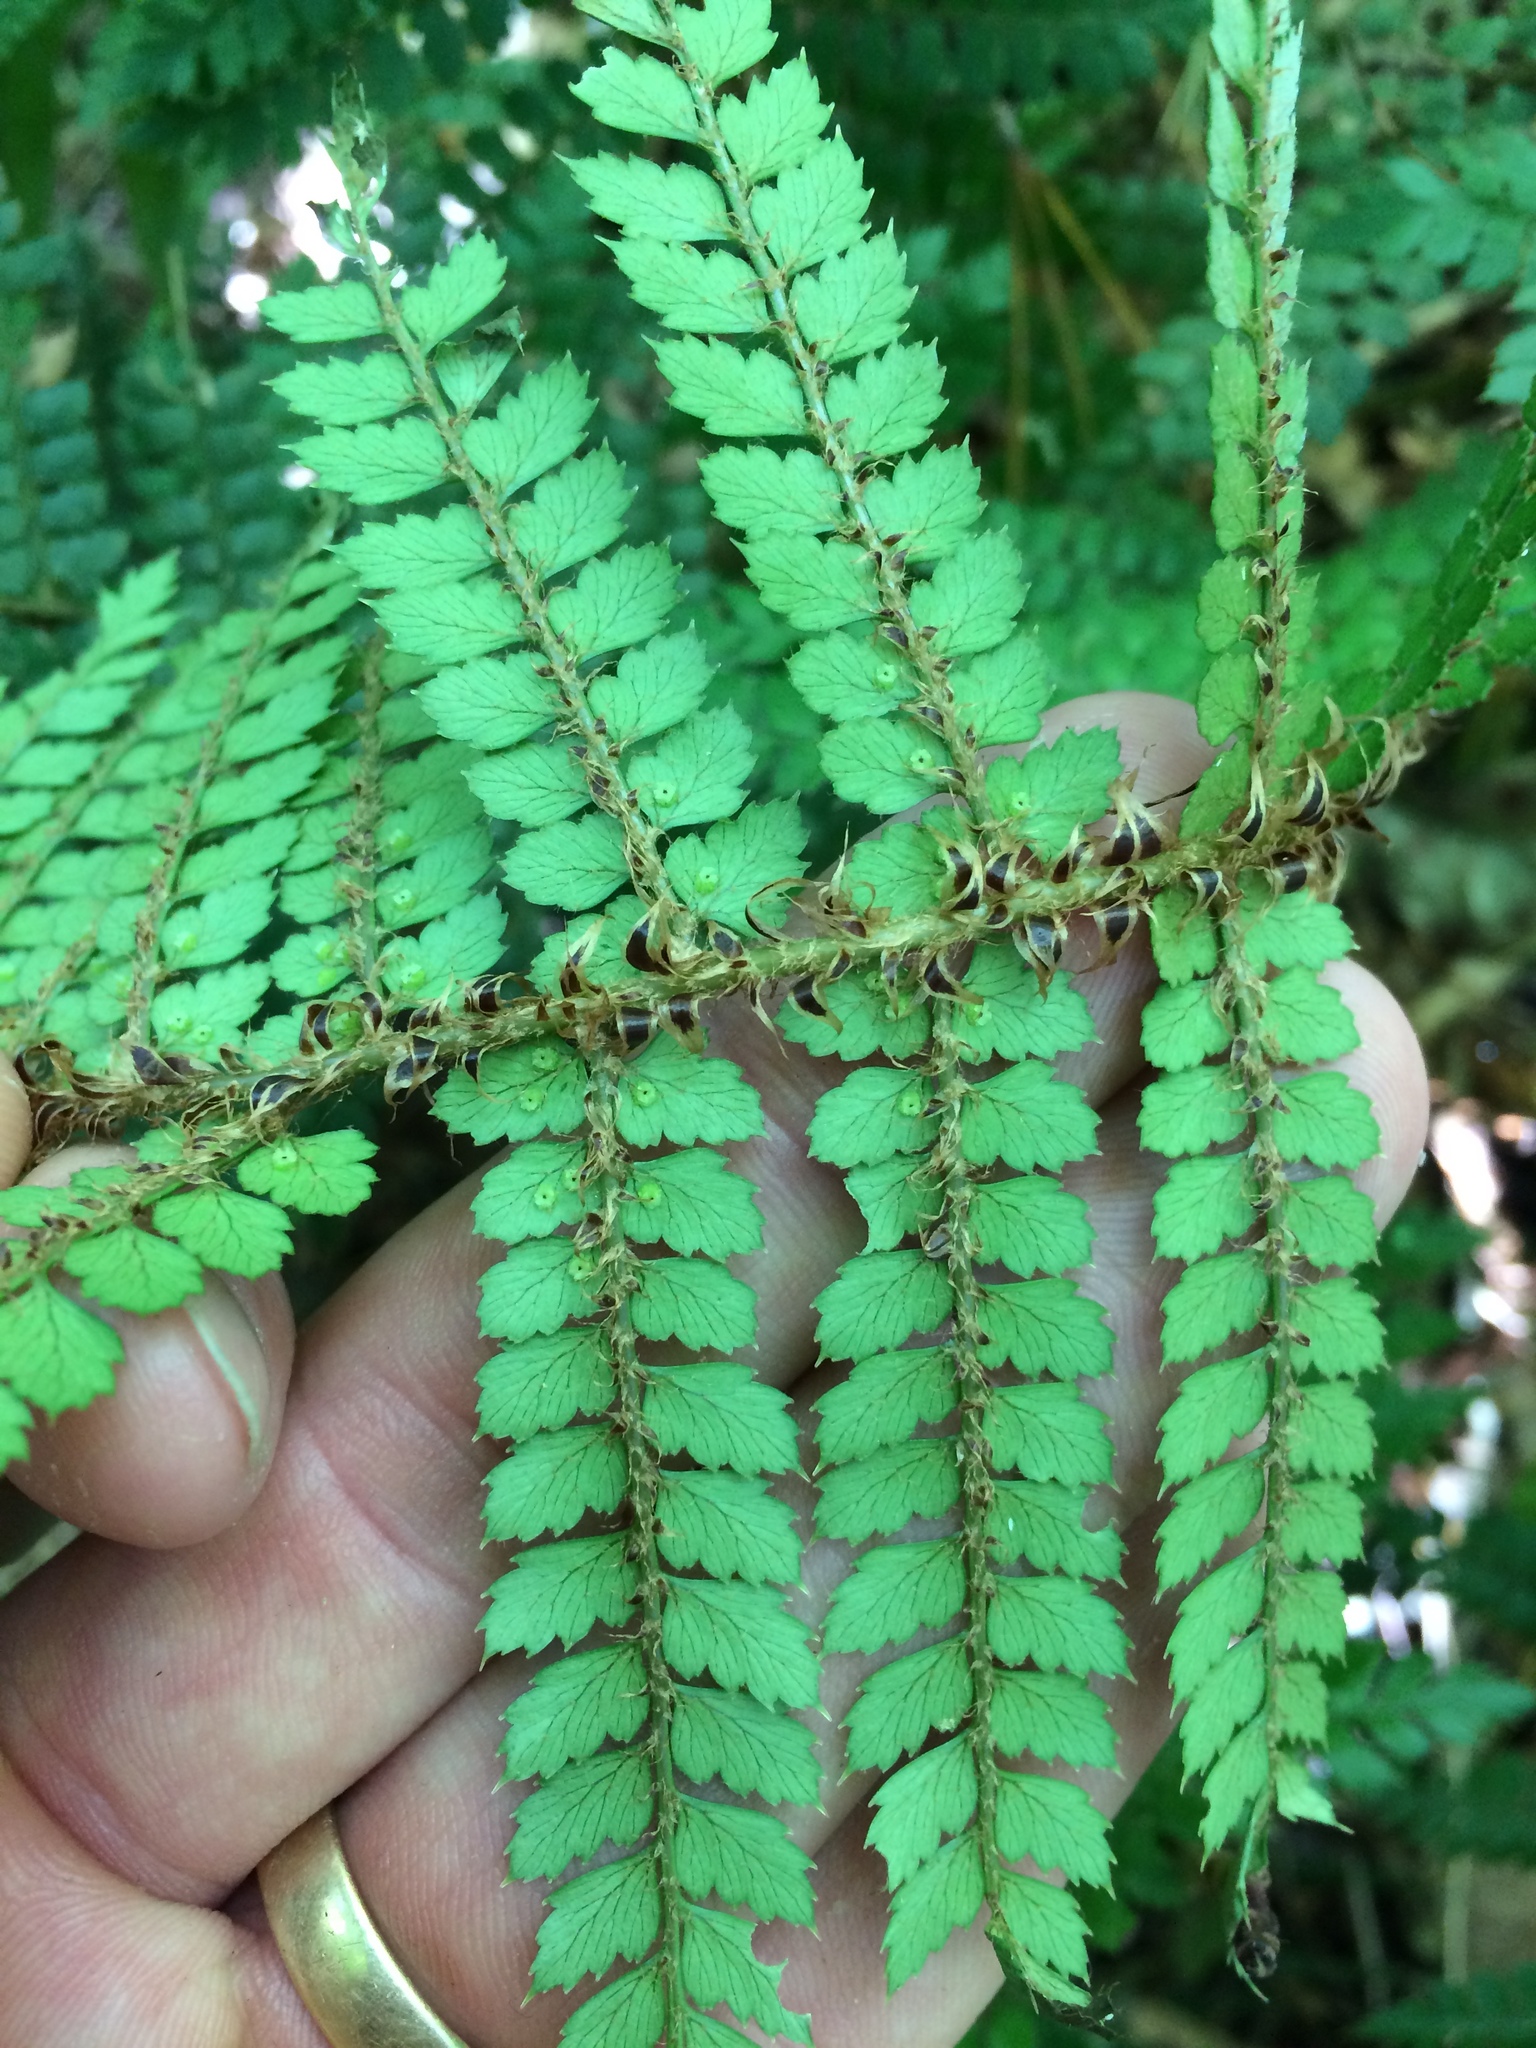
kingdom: Plantae
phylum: Tracheophyta
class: Polypodiopsida
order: Polypodiales
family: Dryopteridaceae
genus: Polystichum
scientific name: Polystichum vestitum
